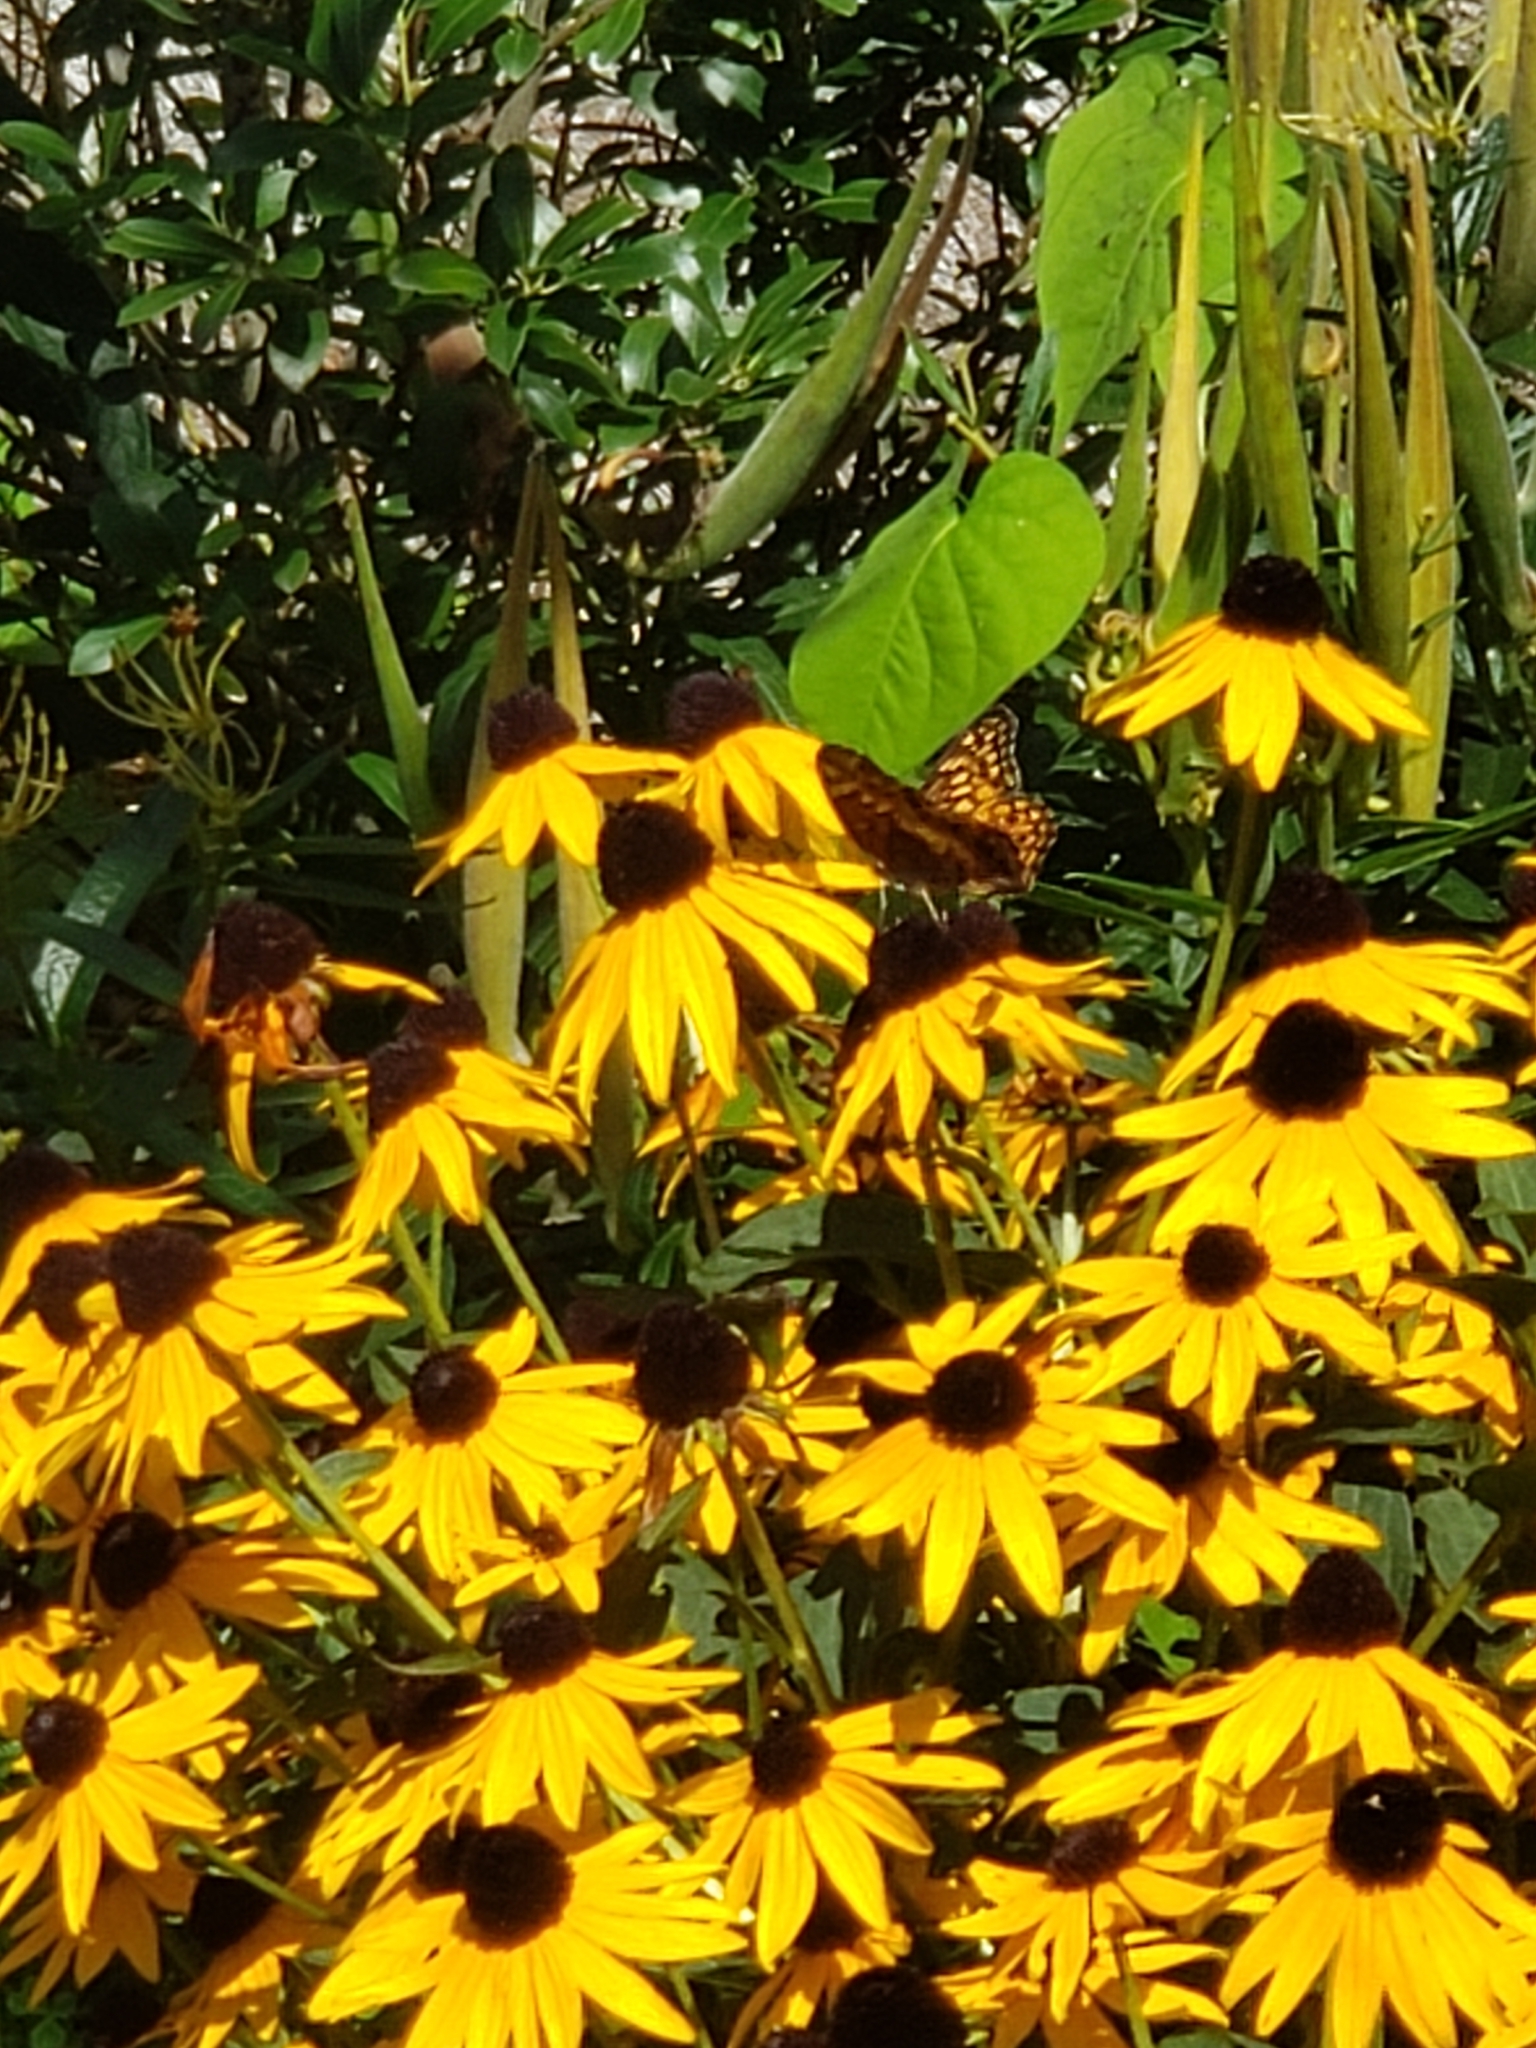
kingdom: Animalia
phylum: Arthropoda
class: Insecta
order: Lepidoptera
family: Nymphalidae
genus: Euptoieta
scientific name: Euptoieta claudia
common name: Variegated fritillary
